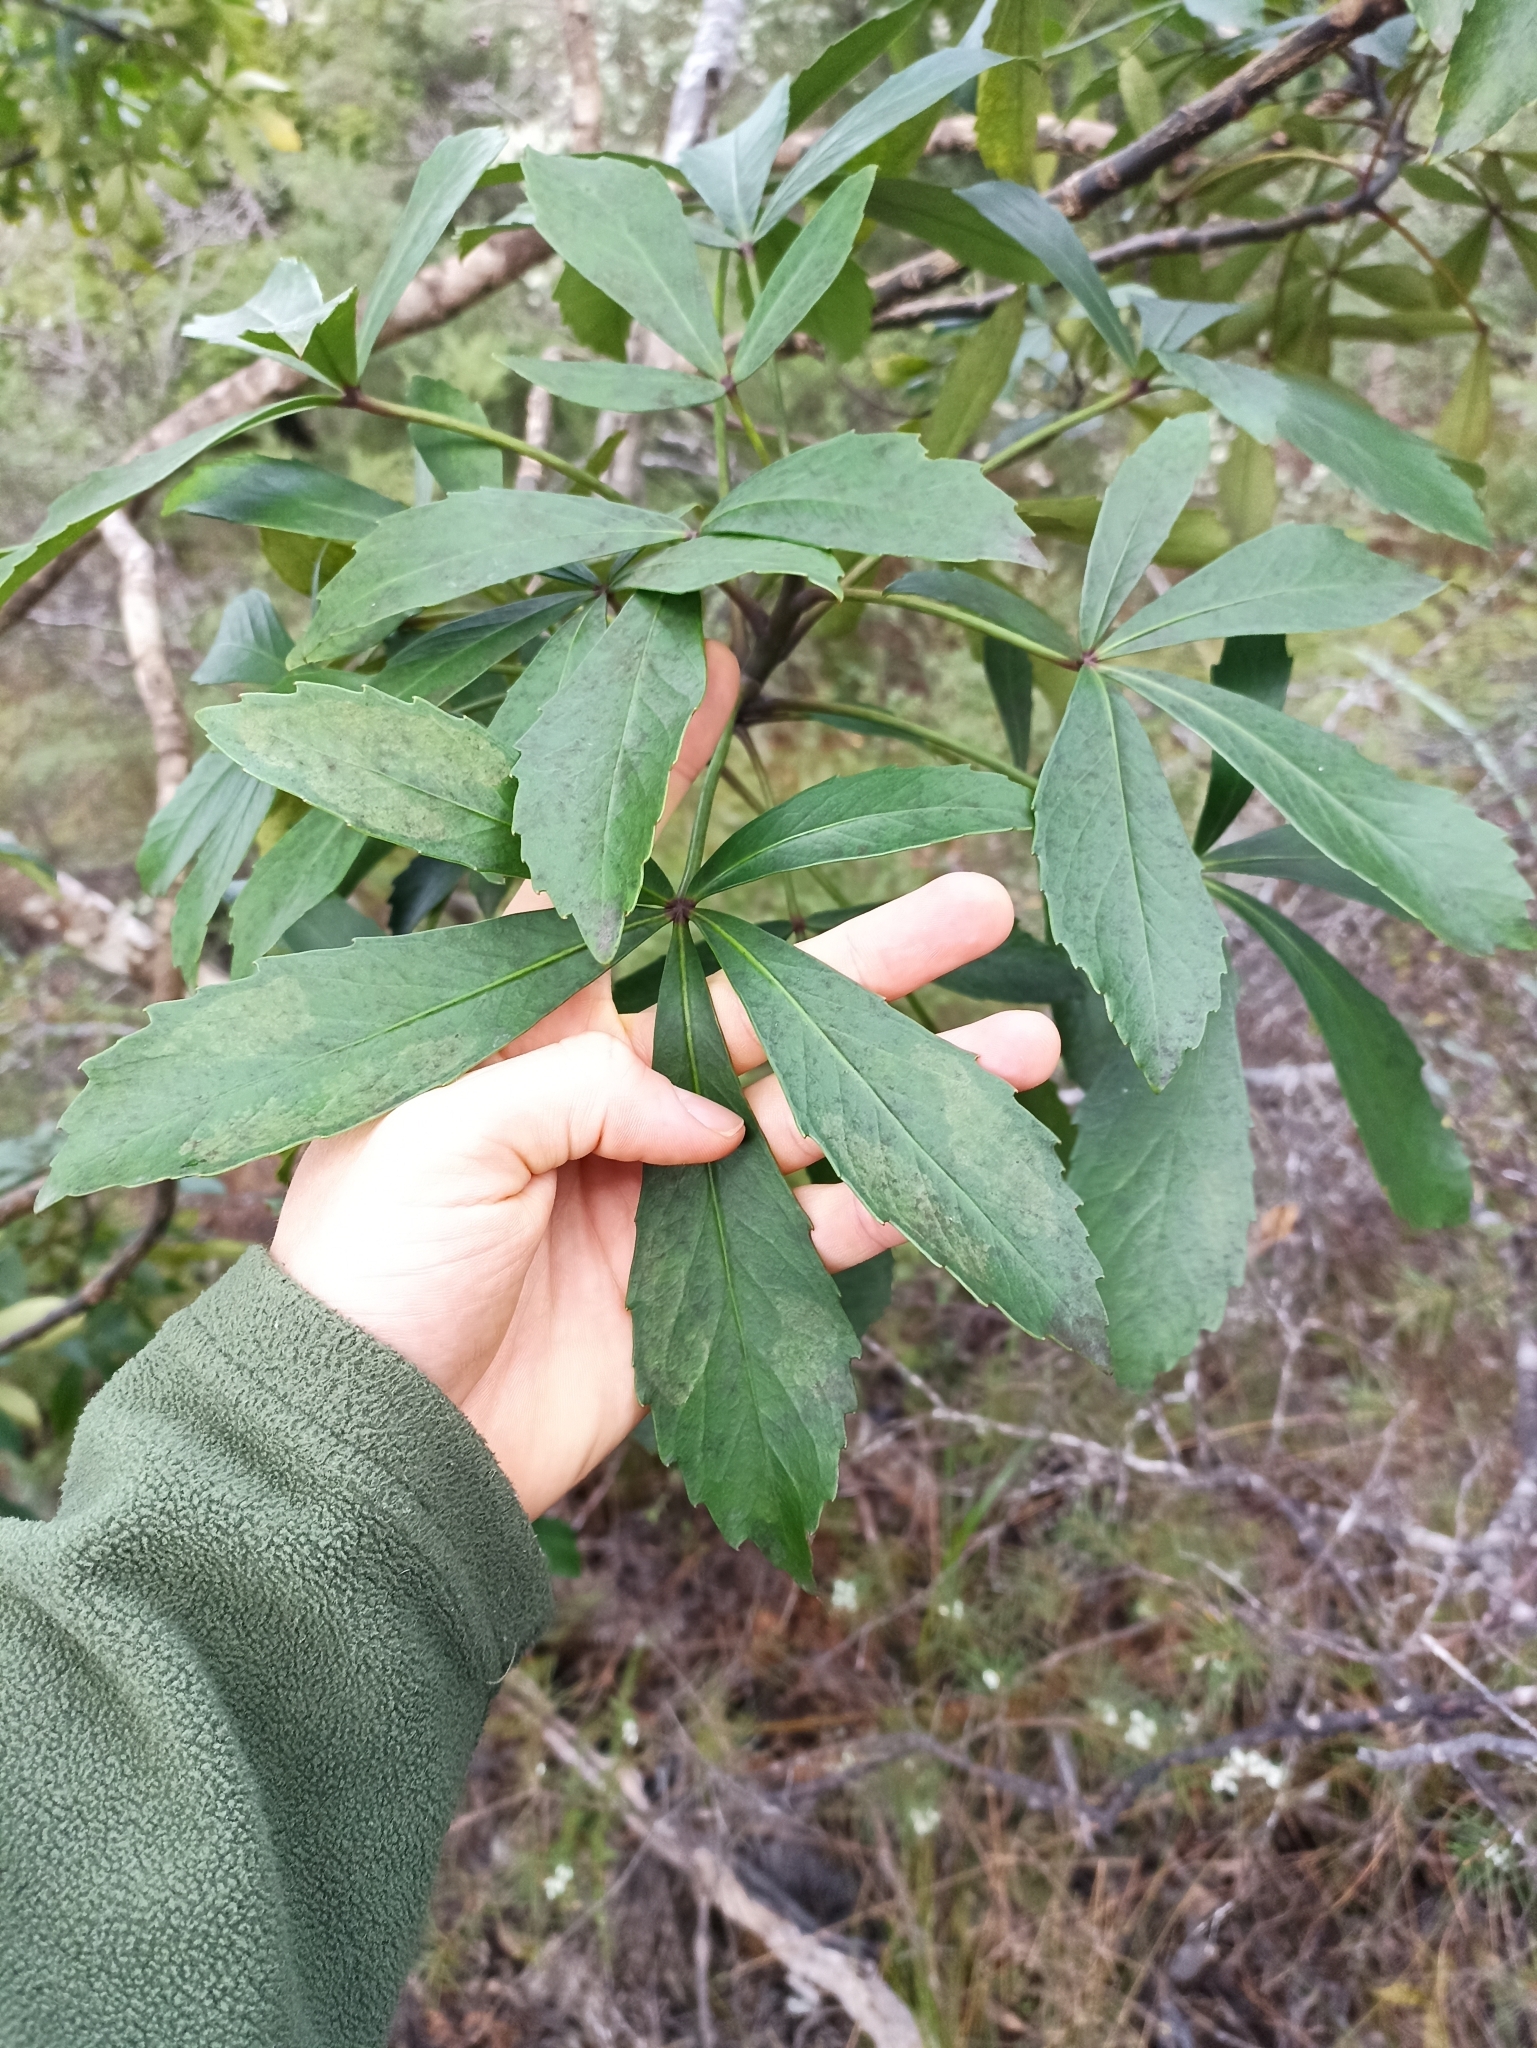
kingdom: Plantae
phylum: Tracheophyta
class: Magnoliopsida
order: Apiales
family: Araliaceae
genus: Pseudopanax
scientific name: Pseudopanax lessonii
